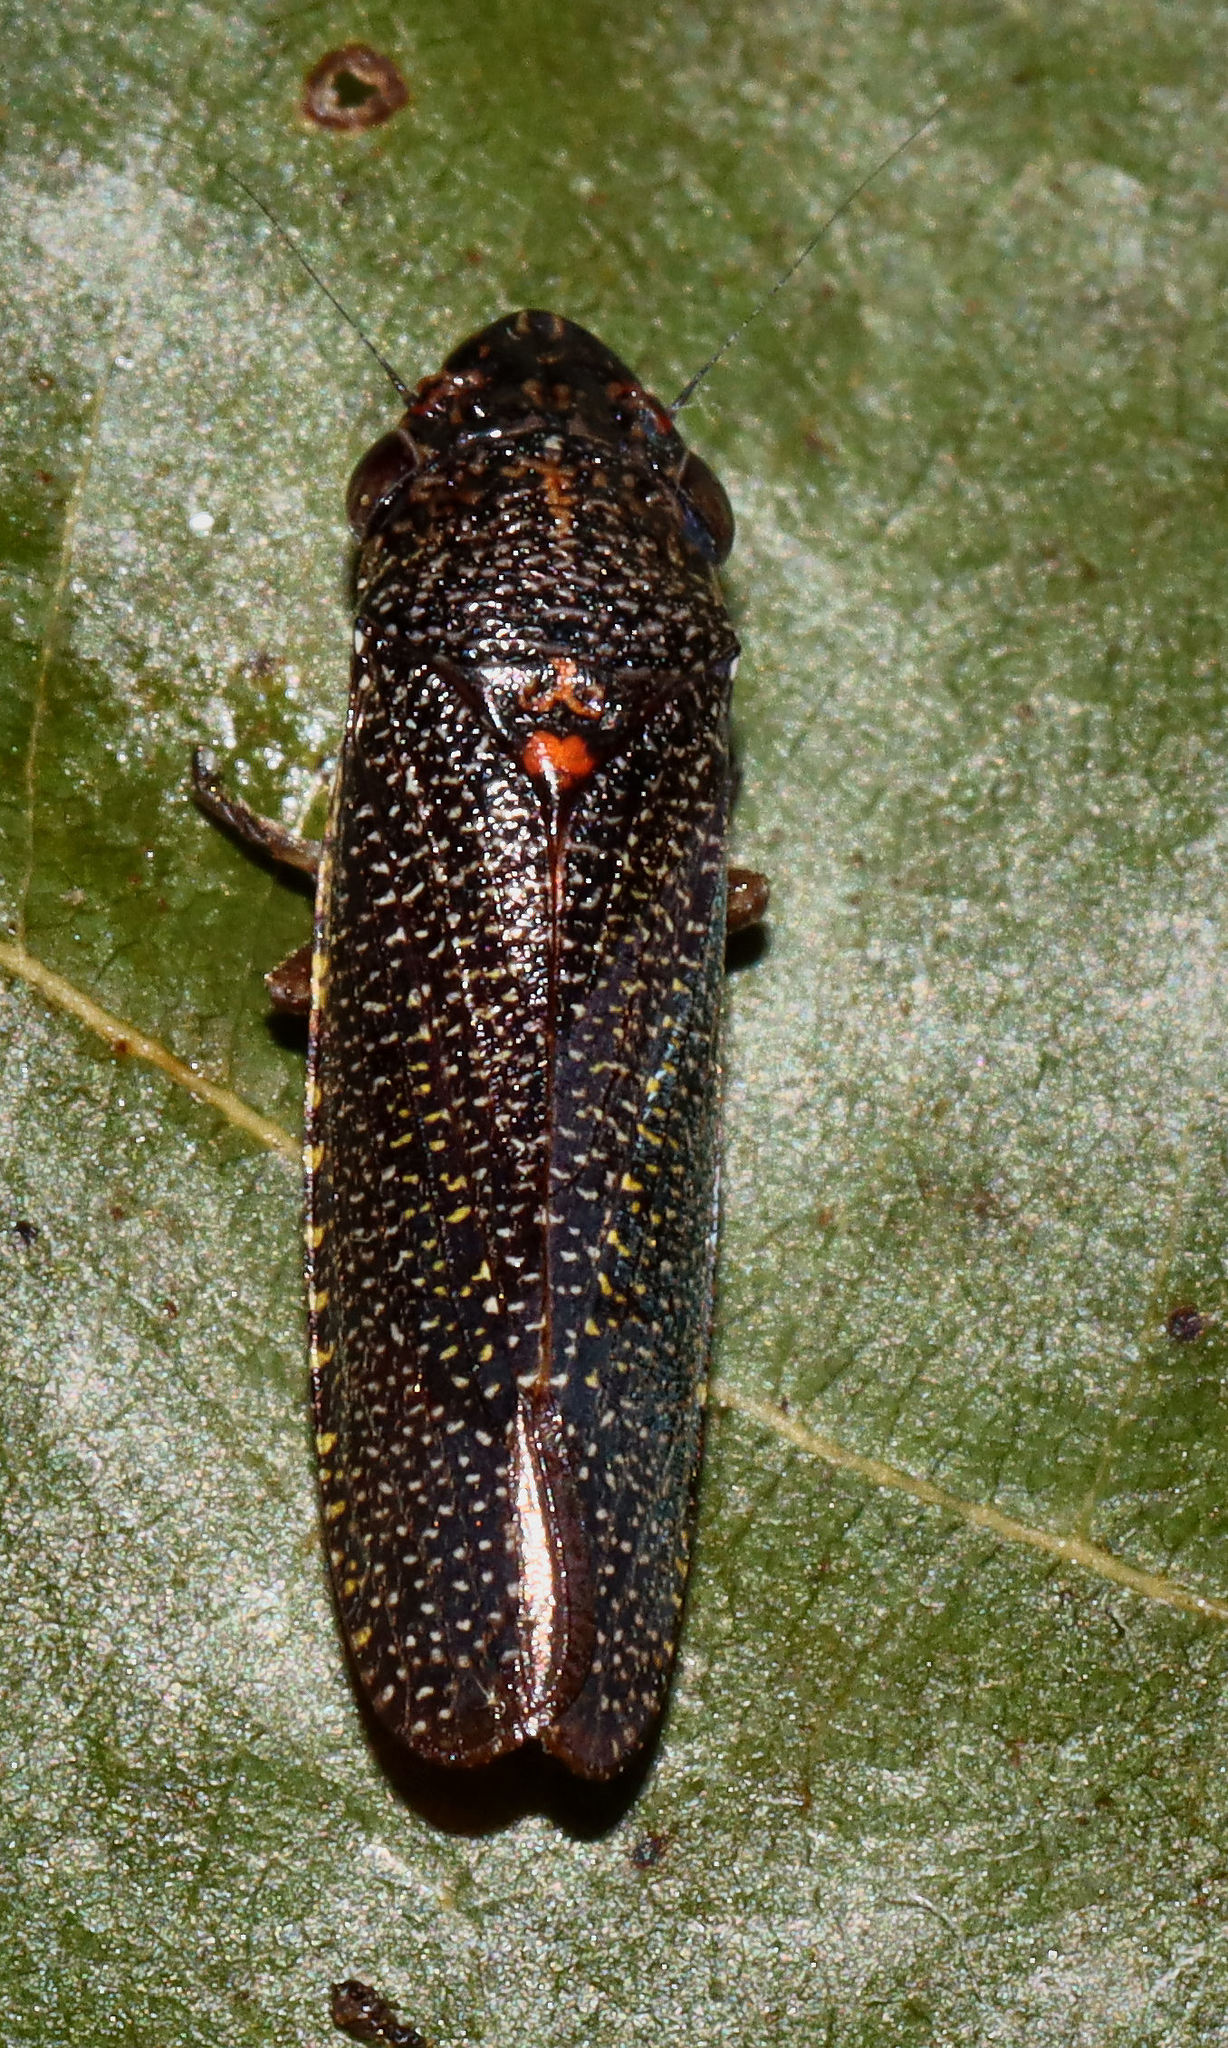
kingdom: Animalia
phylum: Arthropoda
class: Insecta
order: Hemiptera
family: Cicadellidae
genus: Paraulacizes
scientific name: Paraulacizes irrorata
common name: Speckled sharpshooter
